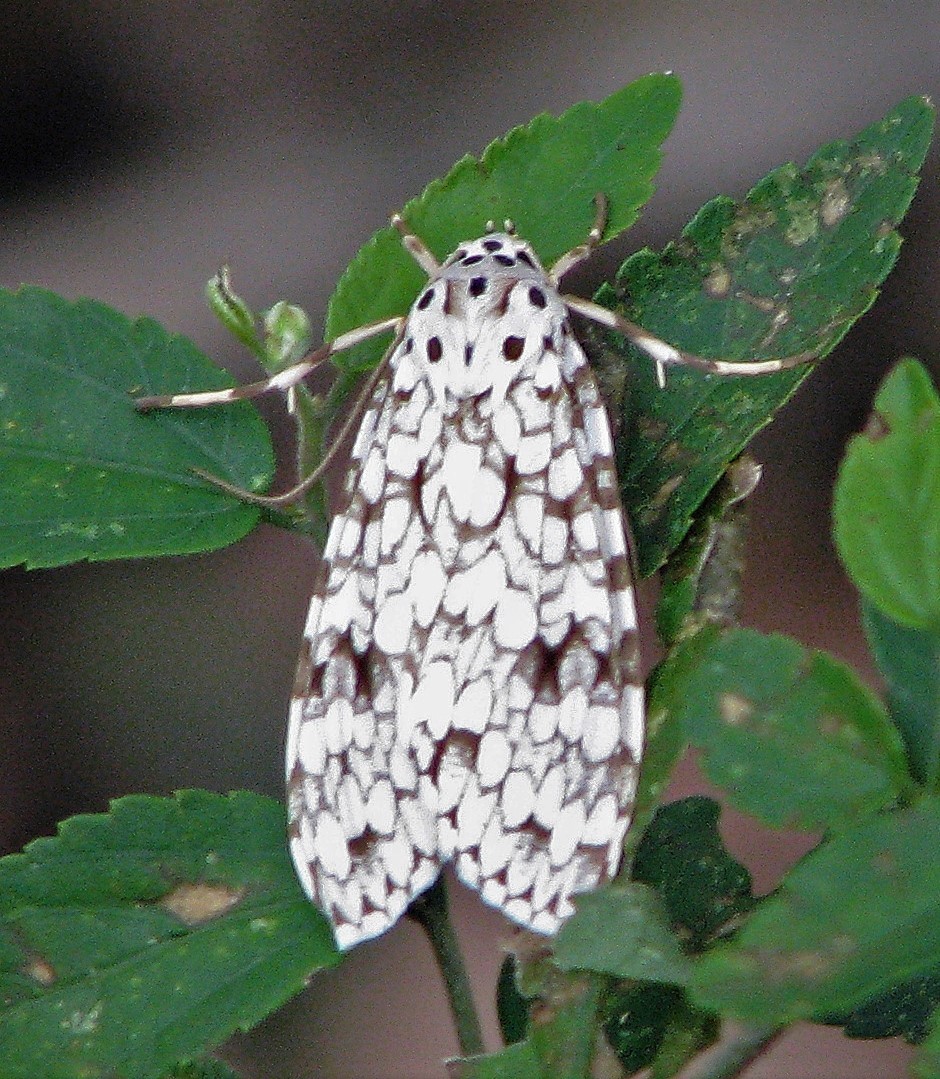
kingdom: Animalia
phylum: Arthropoda
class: Insecta
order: Lepidoptera
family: Erebidae
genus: Carales
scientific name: Carales astur
